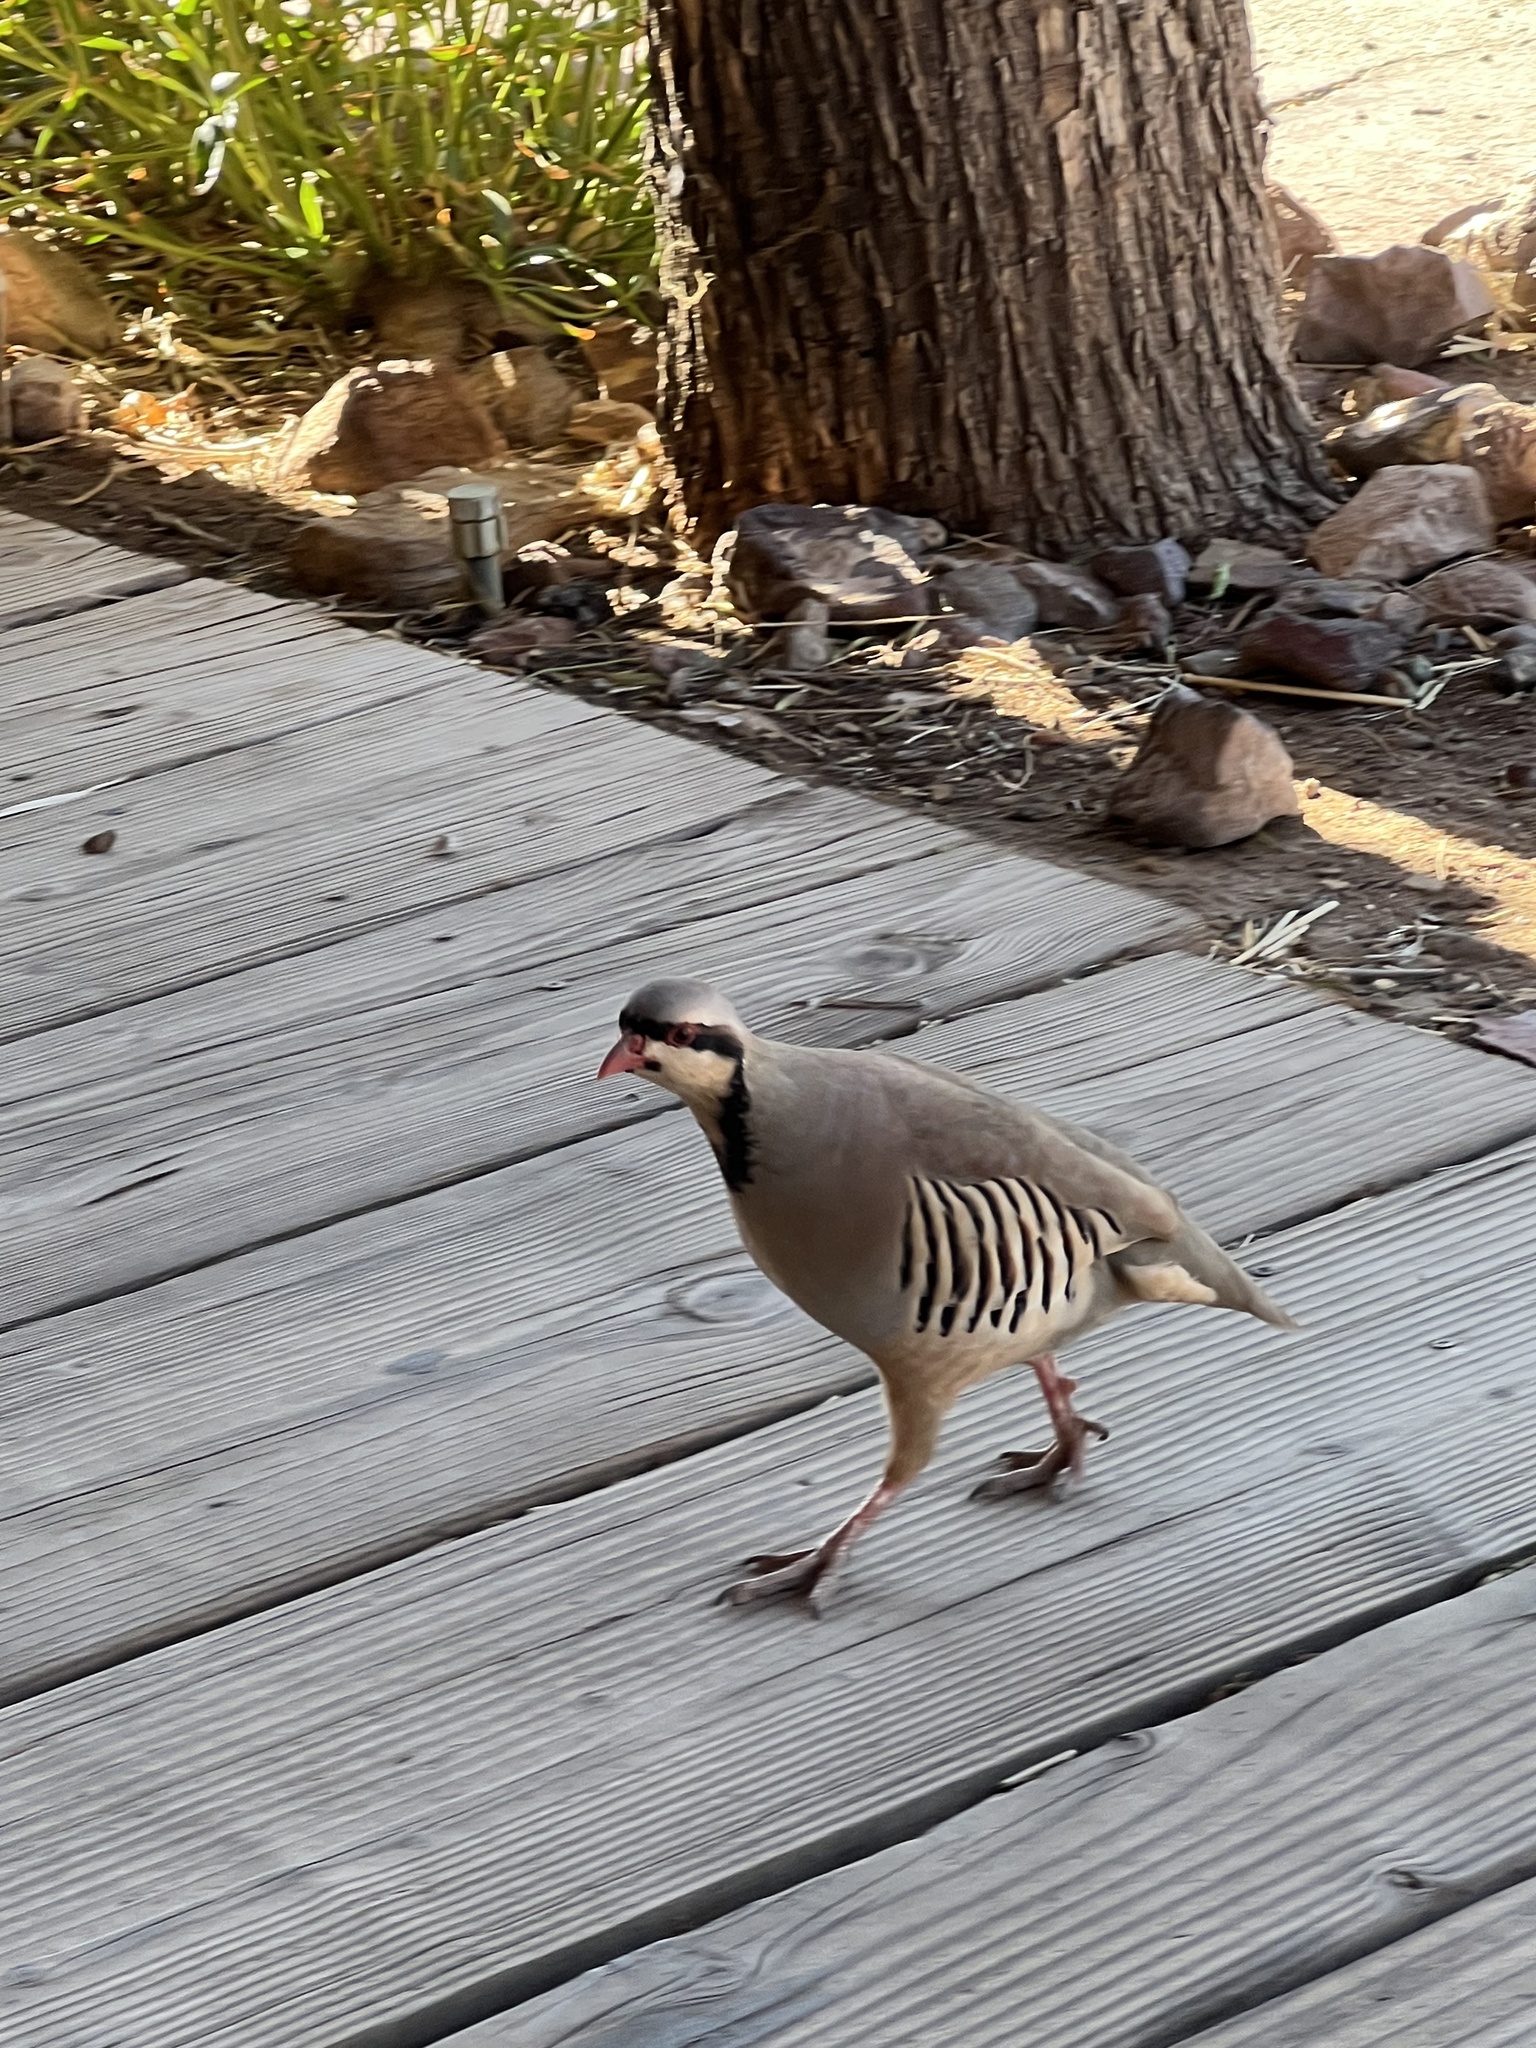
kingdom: Animalia
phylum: Chordata
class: Aves
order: Galliformes
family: Phasianidae
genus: Alectoris
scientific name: Alectoris chukar
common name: Chukar
